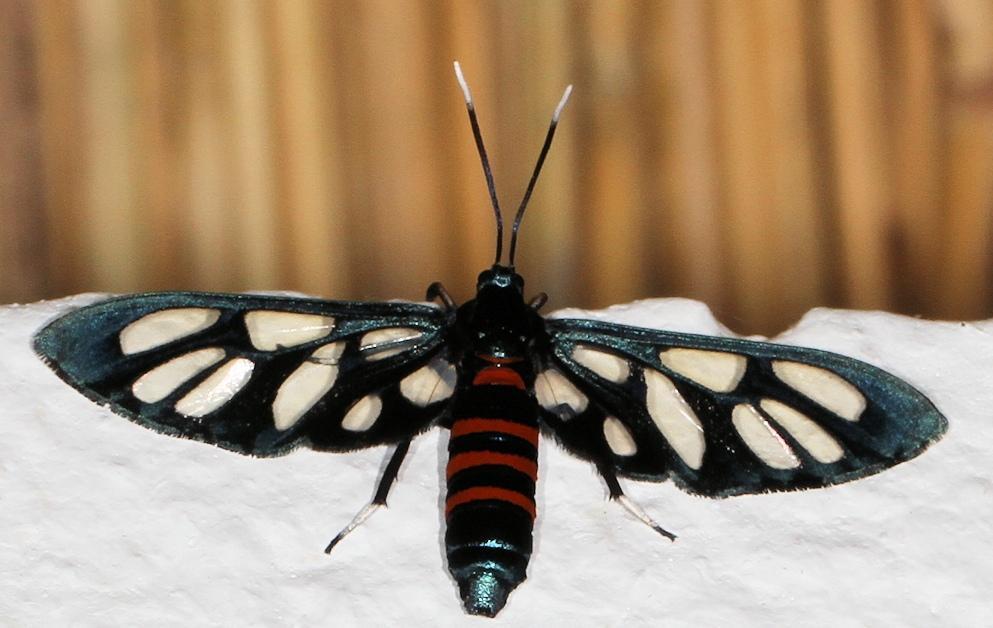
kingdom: Animalia
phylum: Arthropoda
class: Insecta
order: Lepidoptera
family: Erebidae
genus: Amata
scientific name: Amata cerbera
